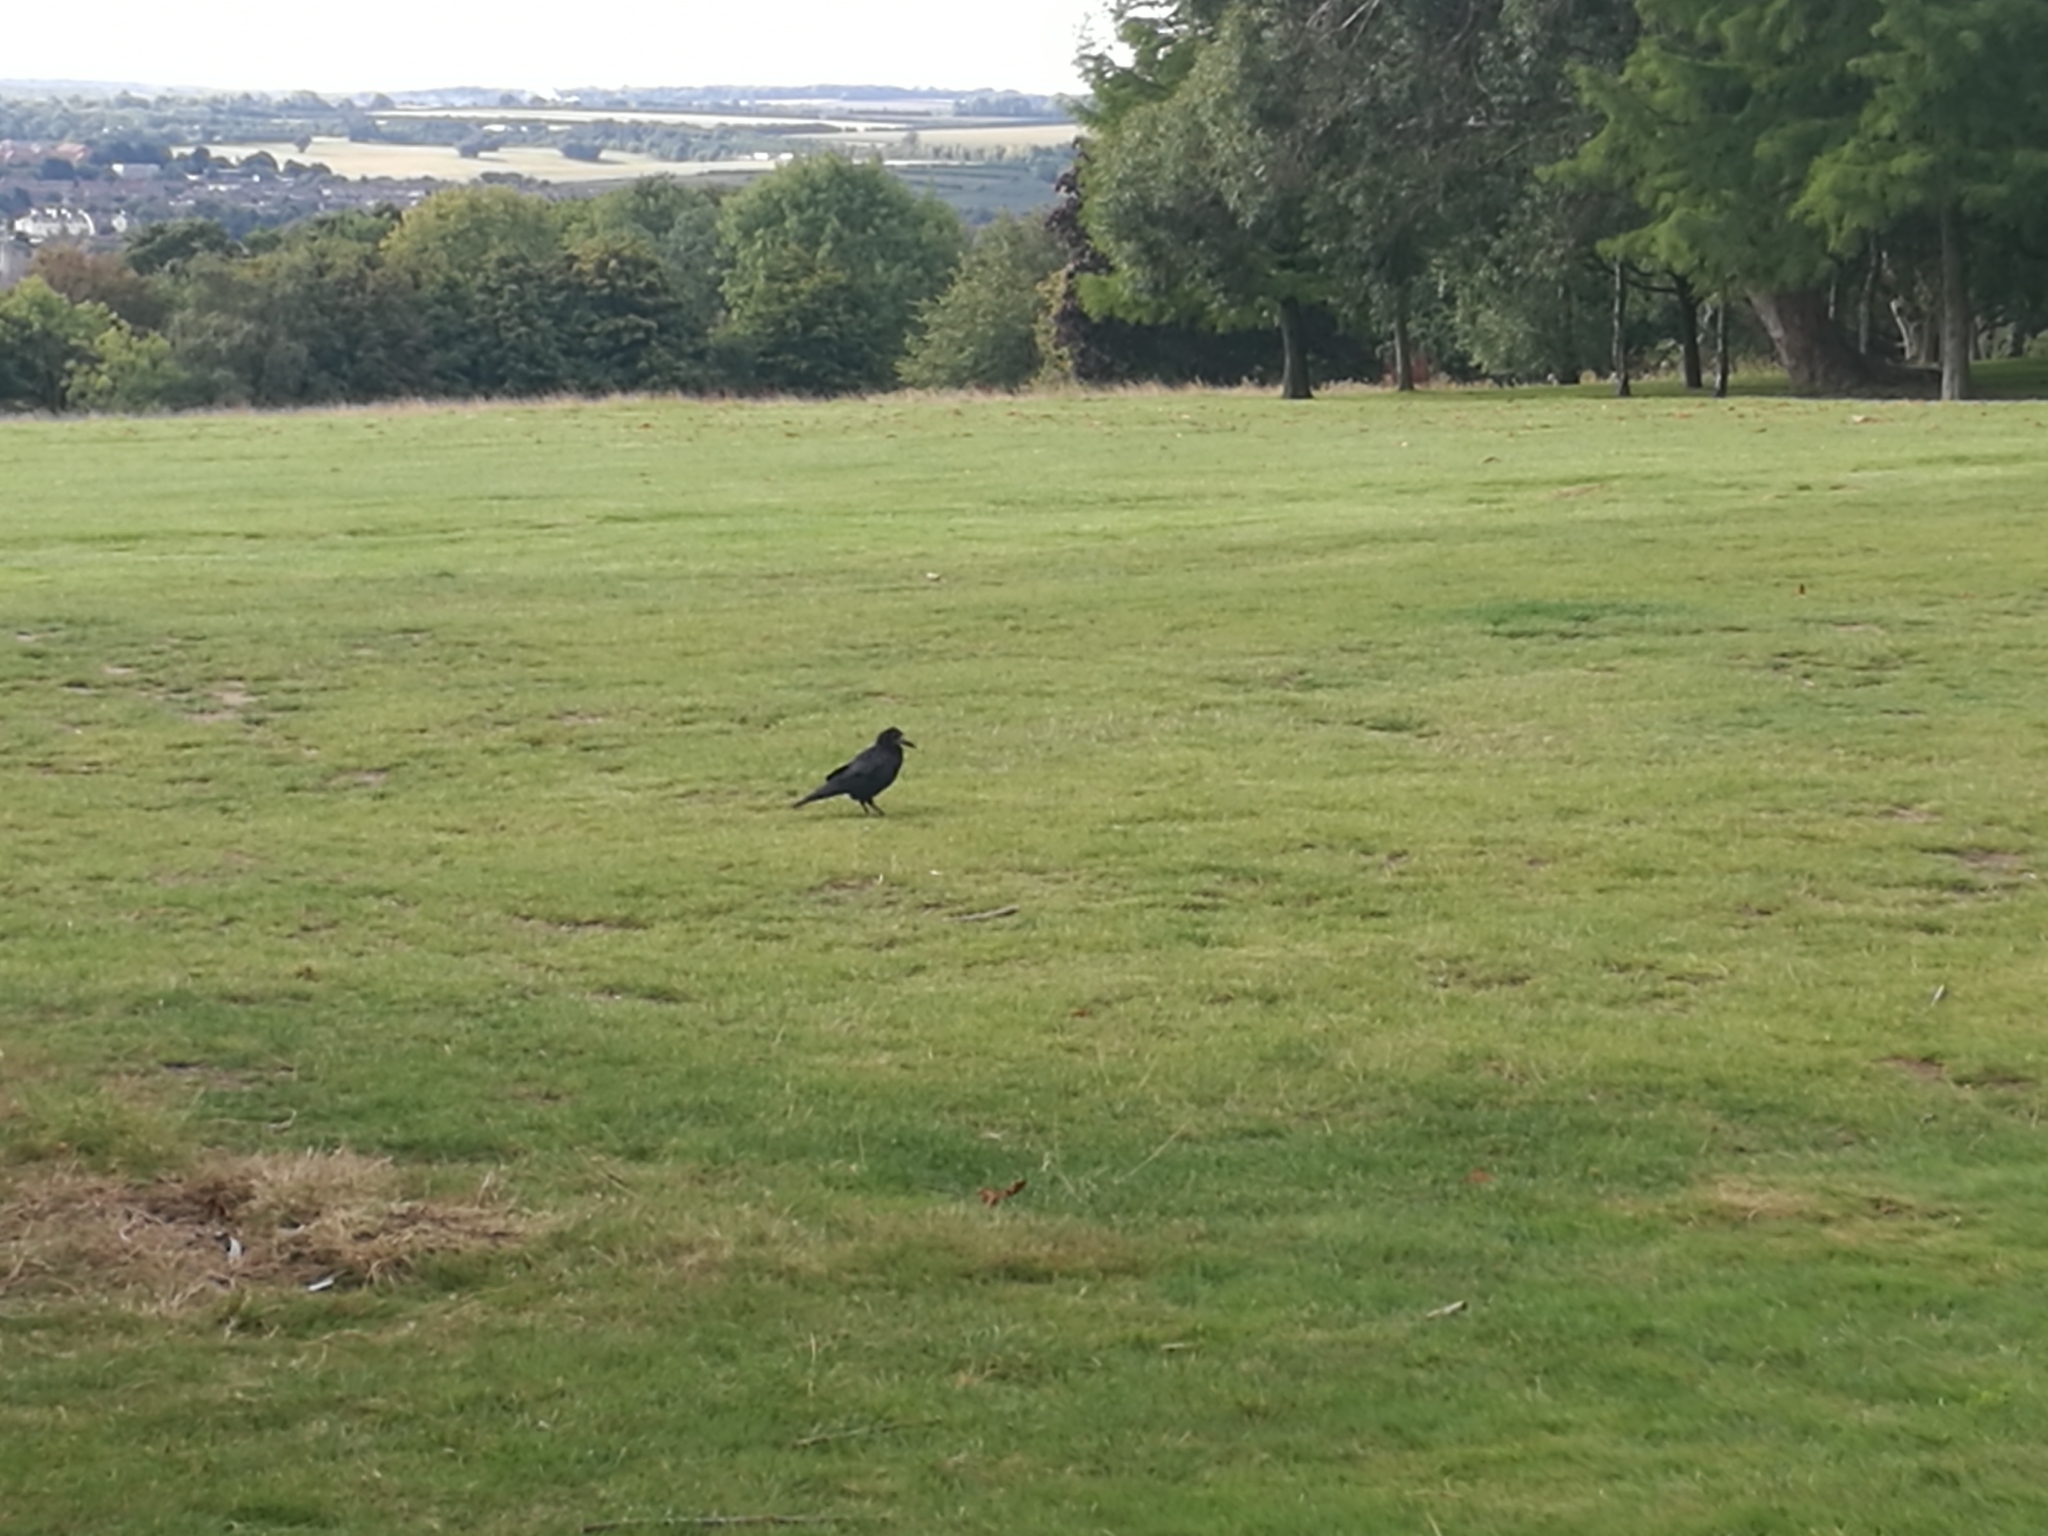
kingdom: Animalia
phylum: Chordata
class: Aves
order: Passeriformes
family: Corvidae
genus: Corvus
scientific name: Corvus frugilegus
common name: Rook
